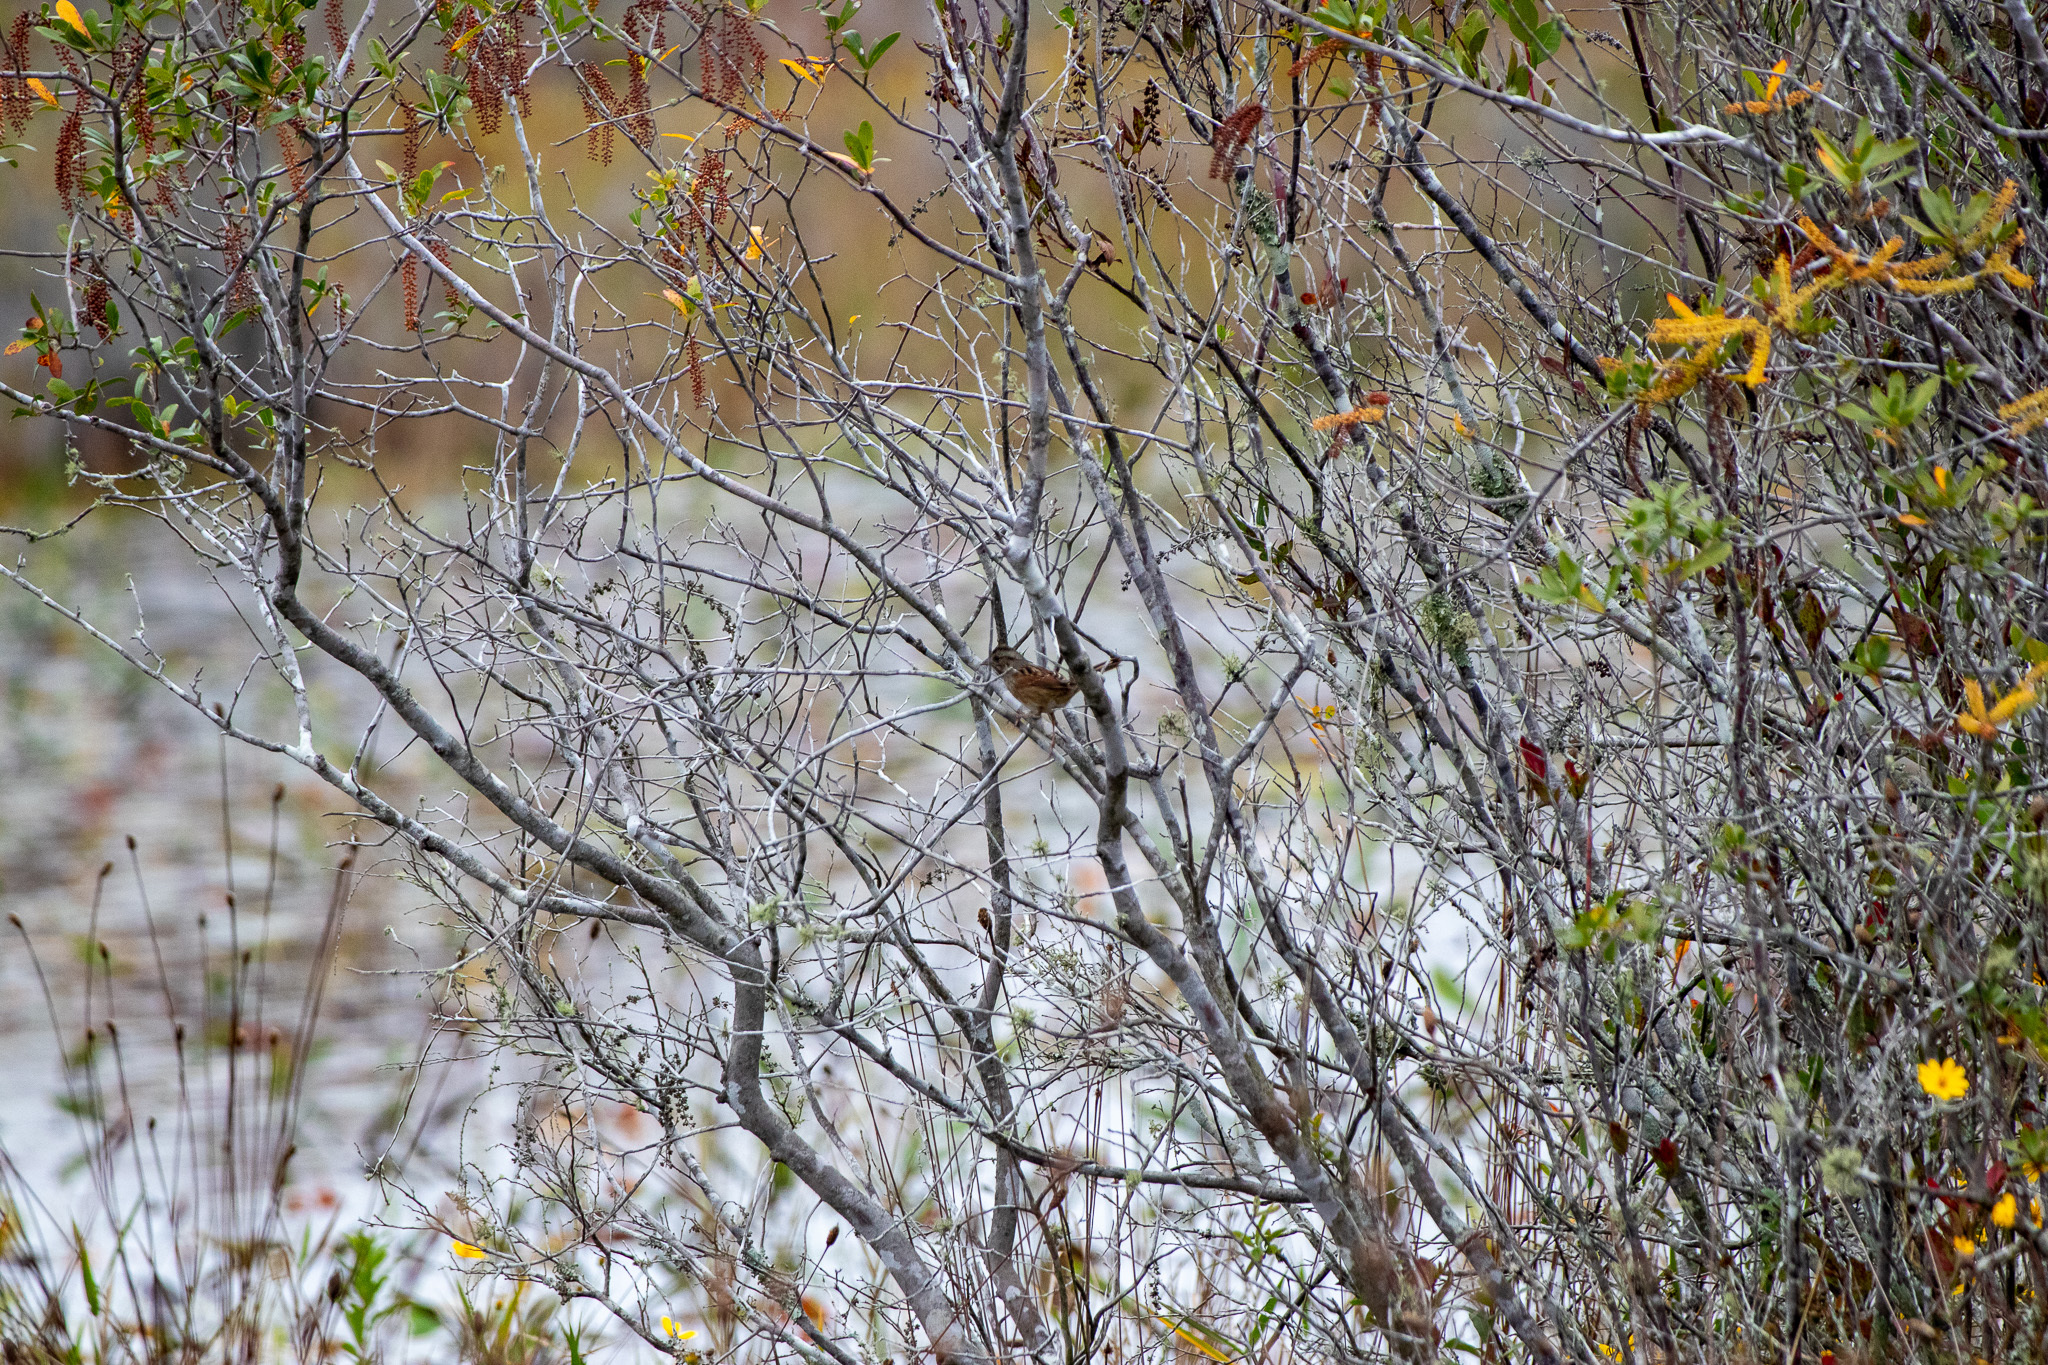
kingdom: Animalia
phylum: Chordata
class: Aves
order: Passeriformes
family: Passerellidae
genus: Melospiza
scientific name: Melospiza georgiana
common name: Swamp sparrow
